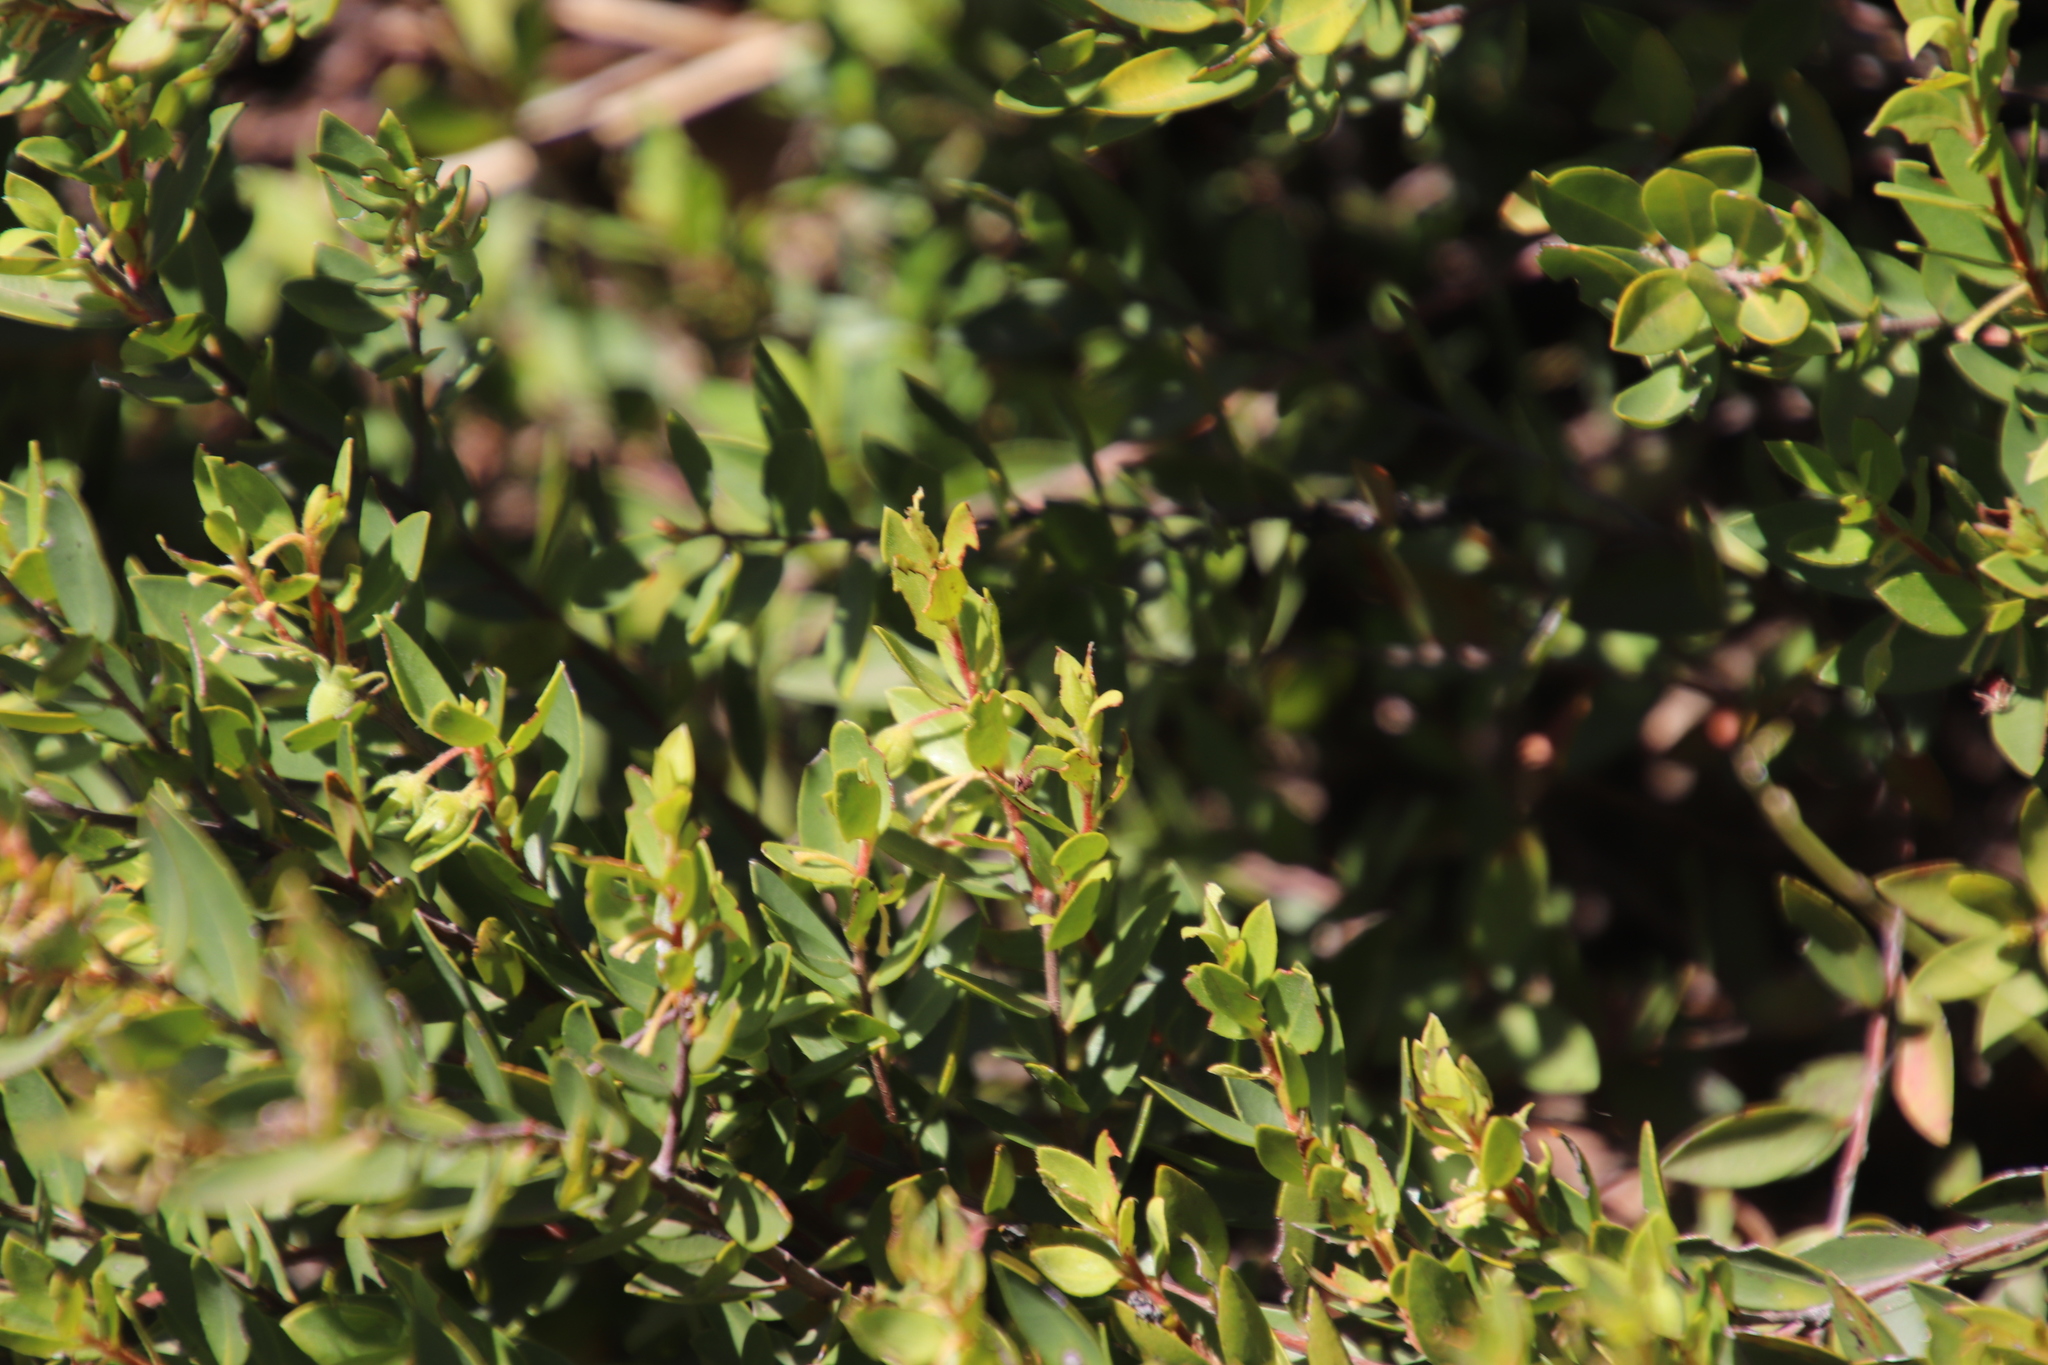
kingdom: Plantae
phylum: Tracheophyta
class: Magnoliopsida
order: Ericales
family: Ebenaceae
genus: Diospyros
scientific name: Diospyros glabra
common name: Fynbos star apple
